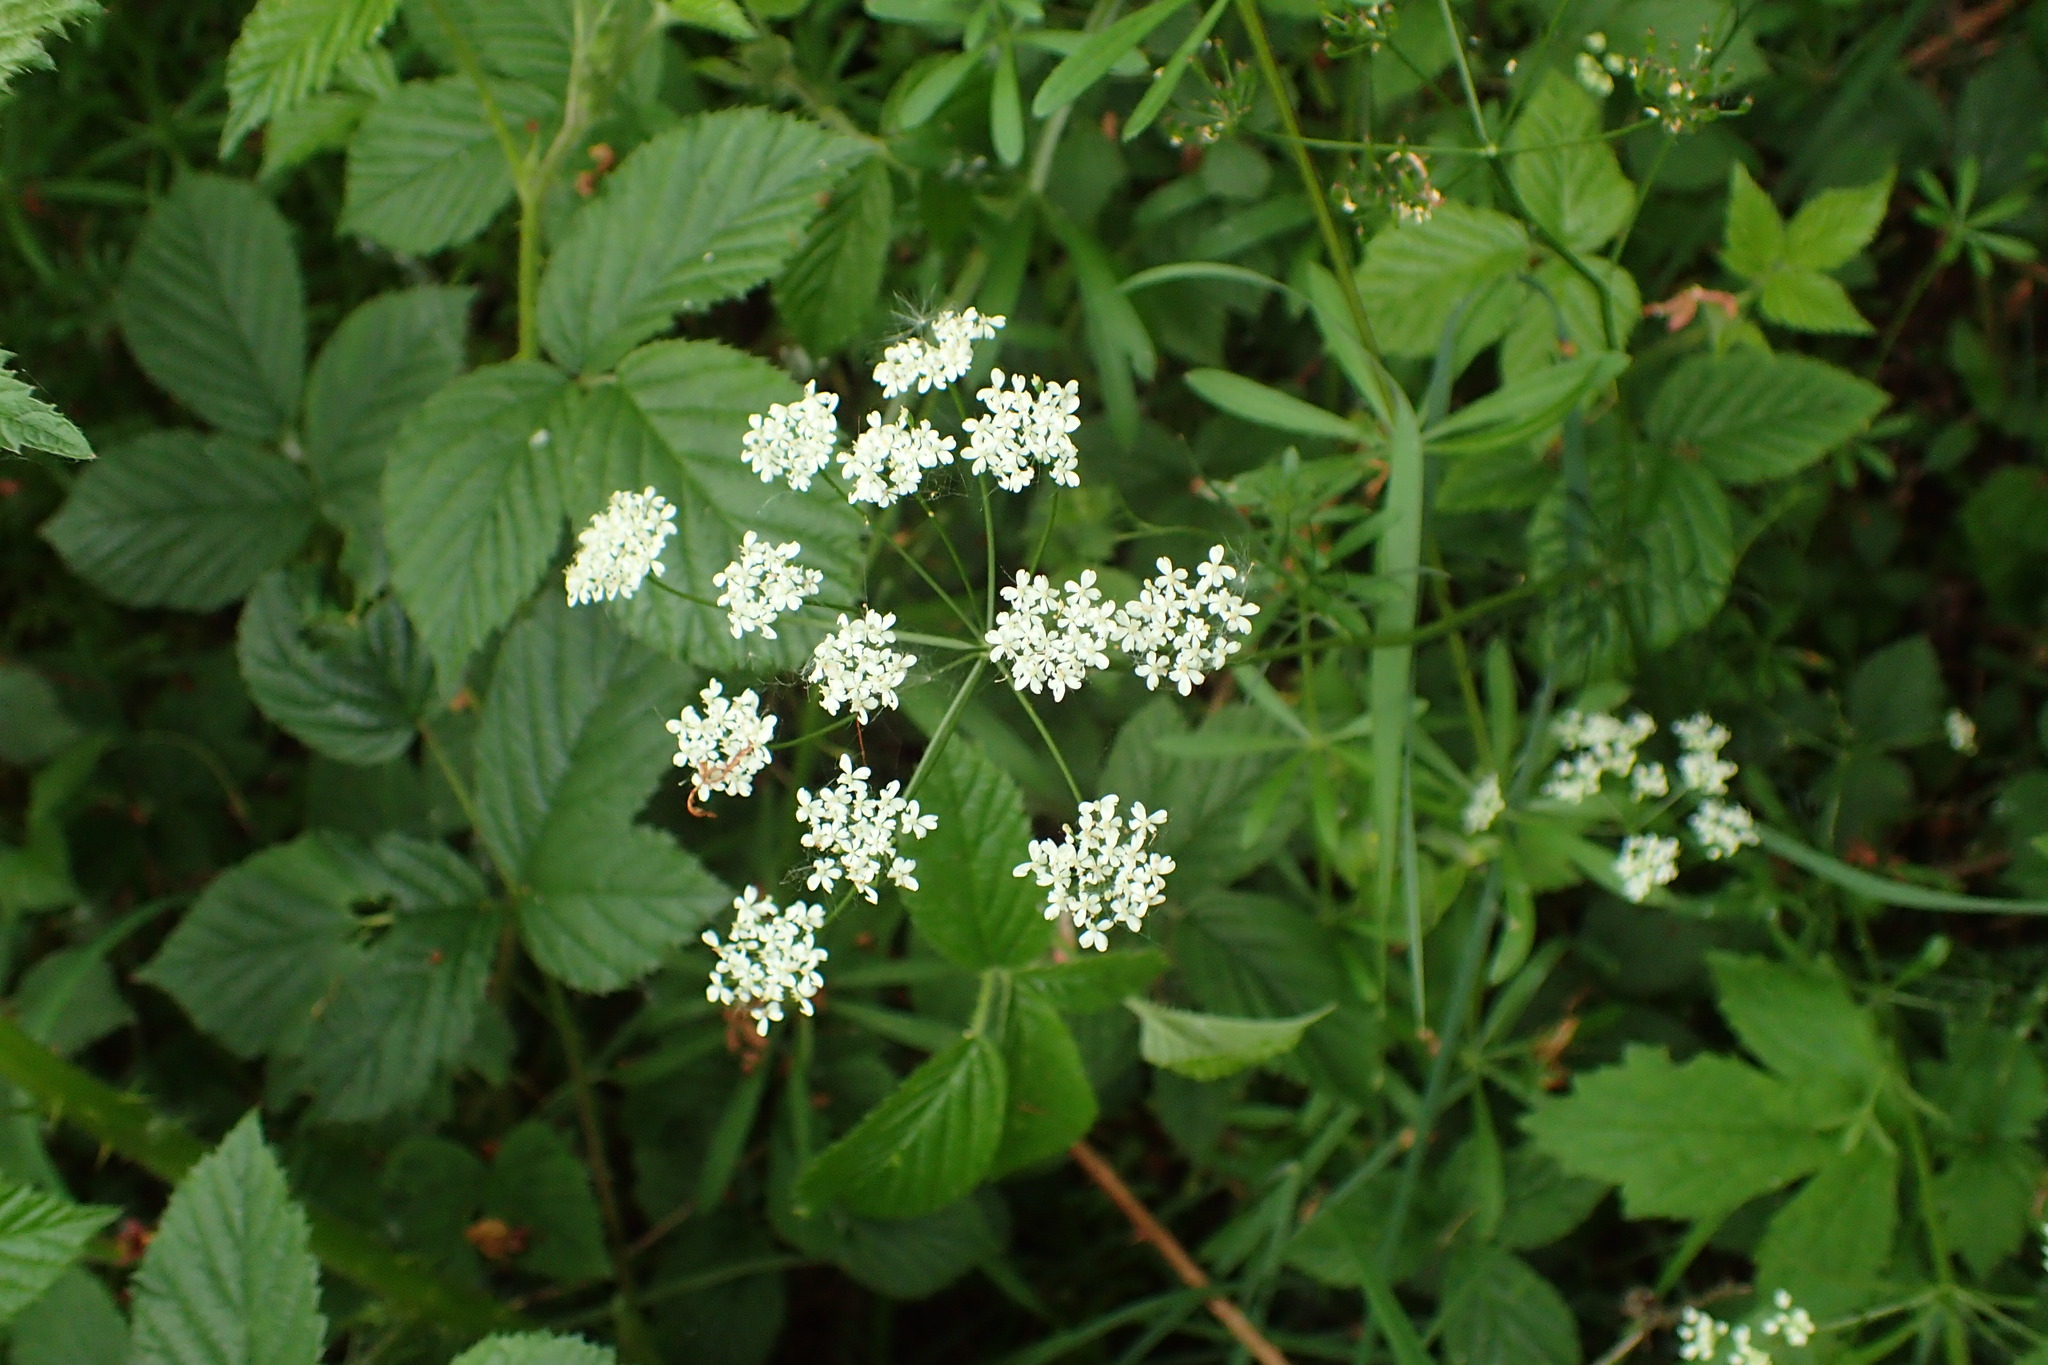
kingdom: Plantae
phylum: Tracheophyta
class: Magnoliopsida
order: Apiales
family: Apiaceae
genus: Conopodium
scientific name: Conopodium majus
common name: Pignut
